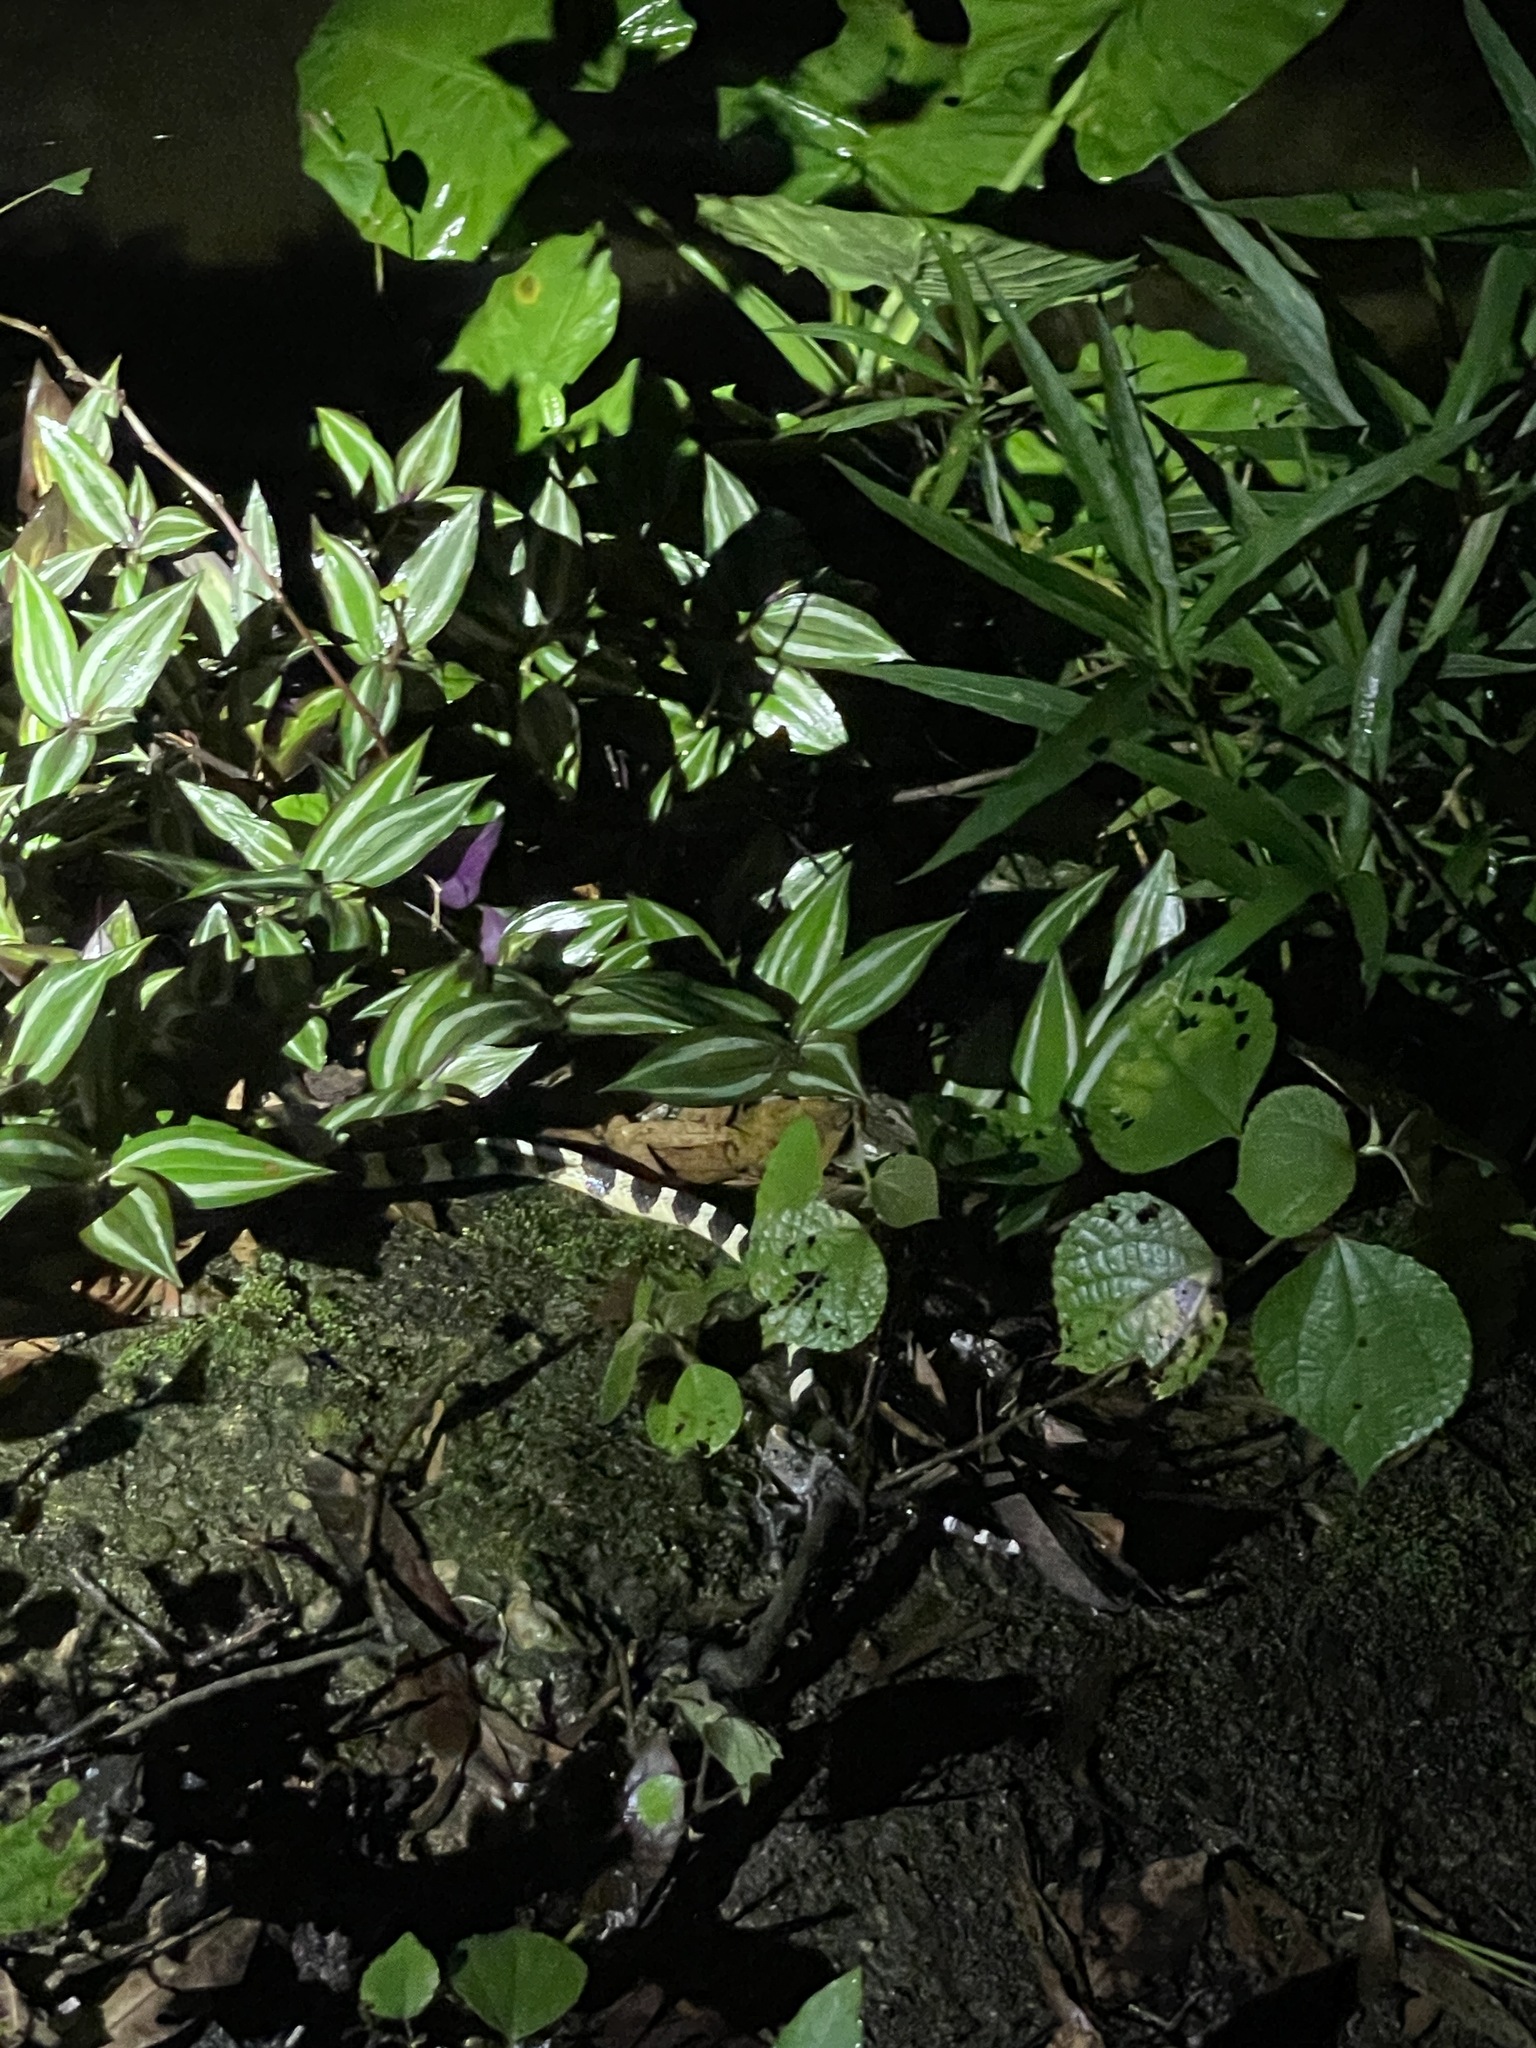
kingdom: Animalia
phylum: Chordata
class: Squamata
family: Elapidae
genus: Bungarus
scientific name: Bungarus multicinctus
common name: Many-banded krait
